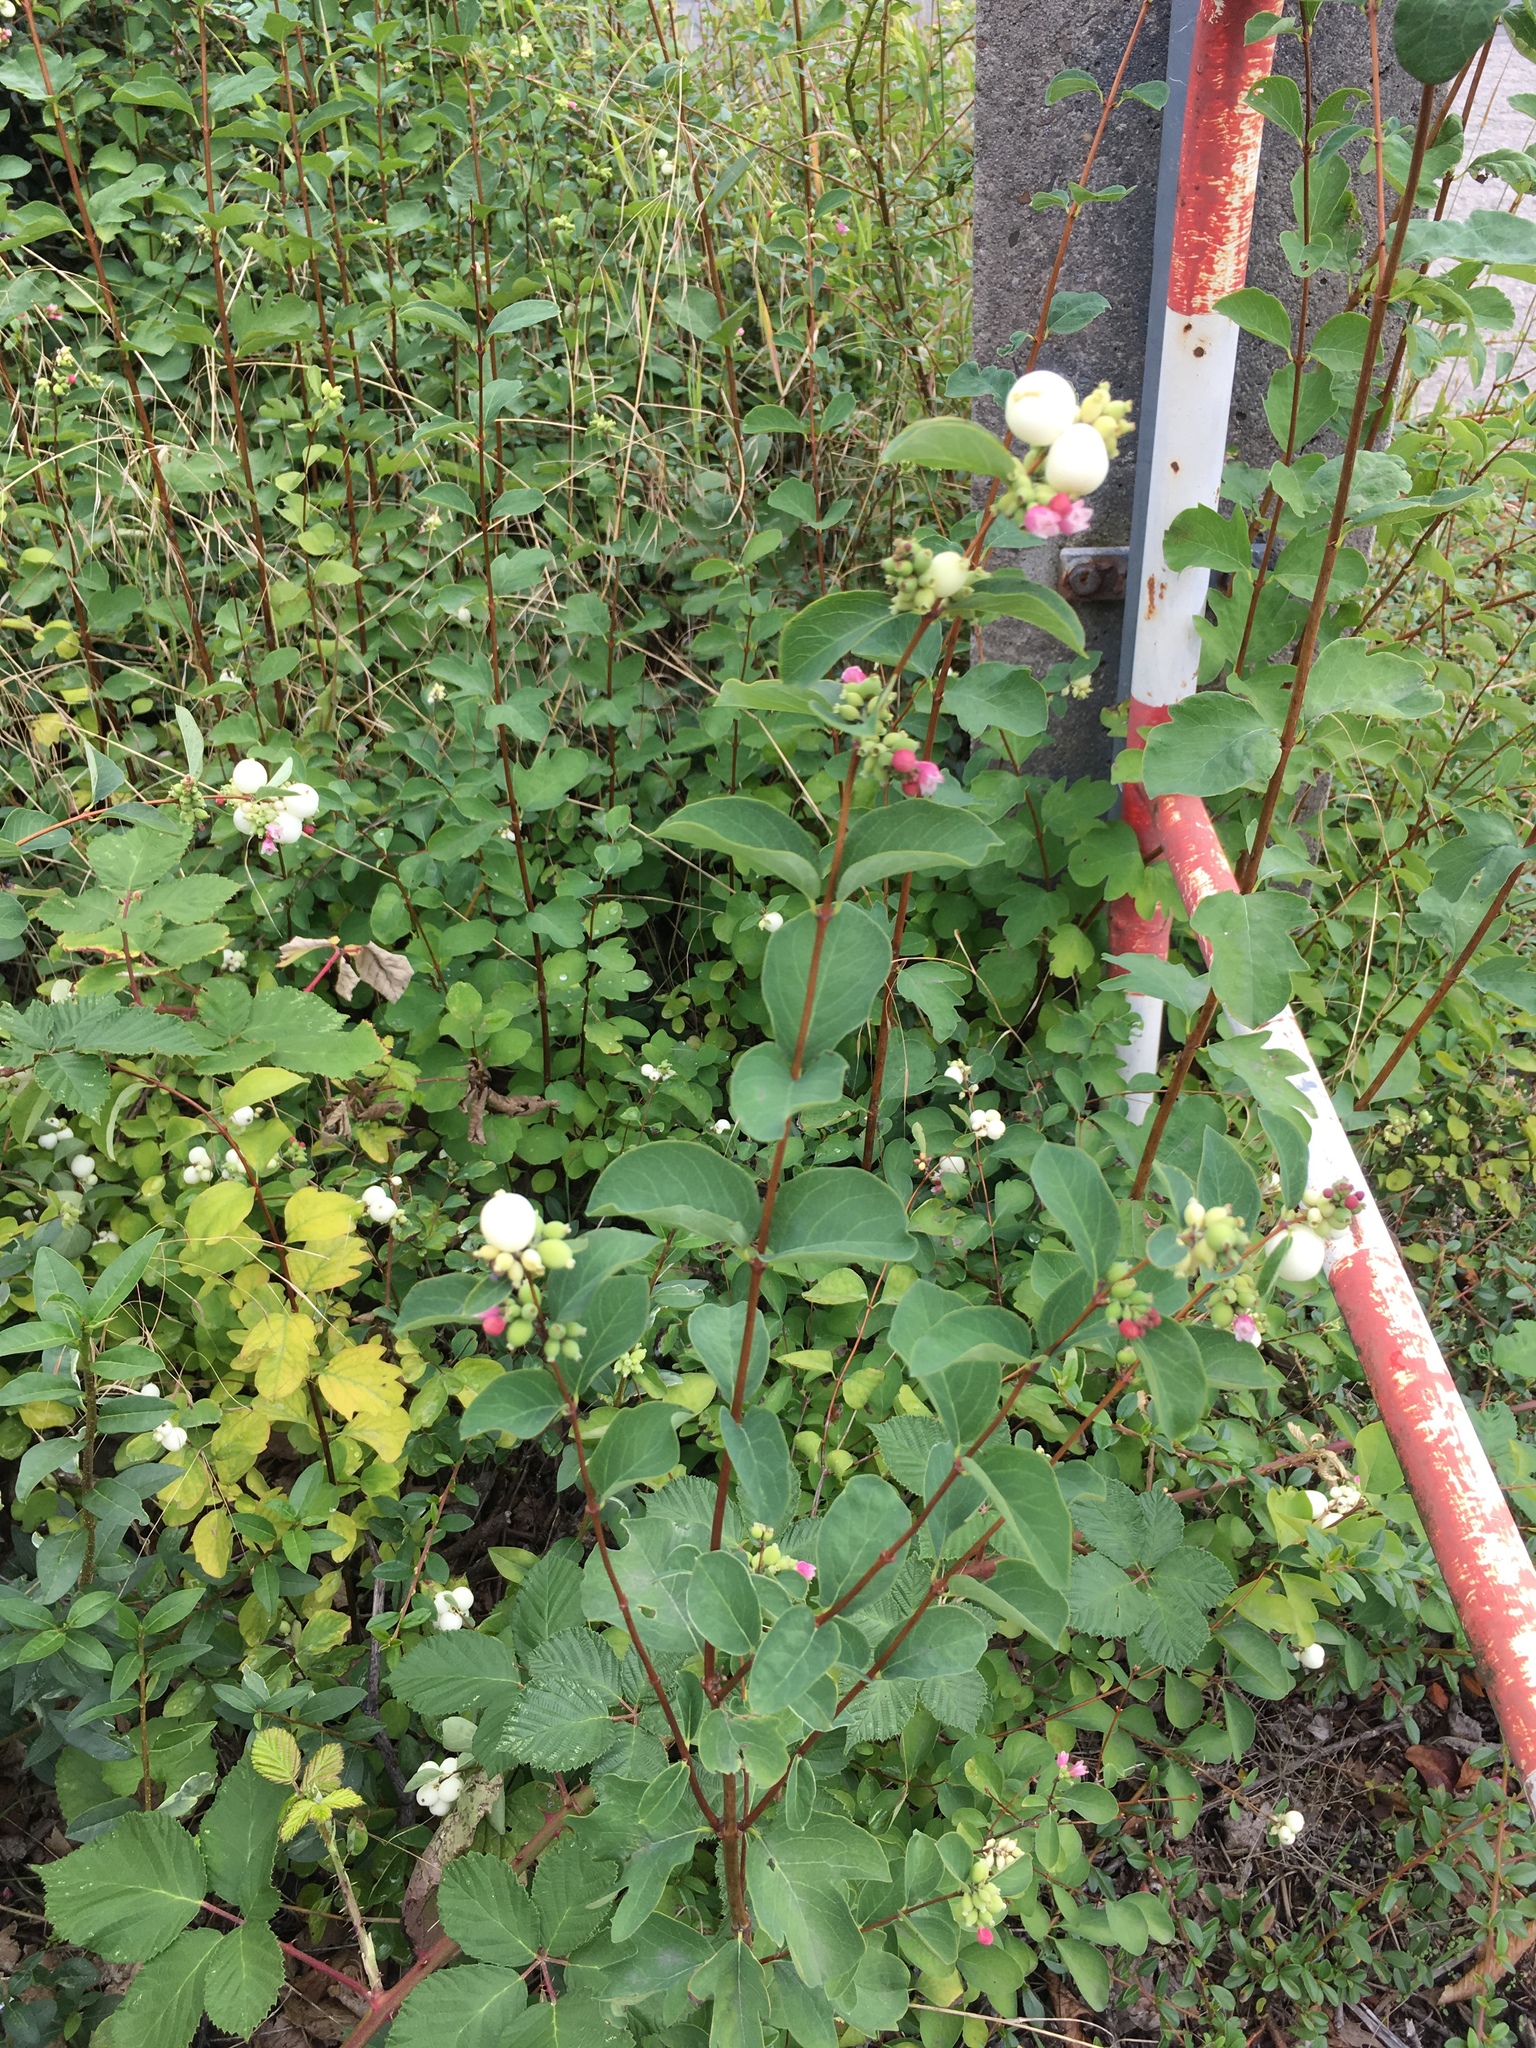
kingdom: Plantae
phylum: Tracheophyta
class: Magnoliopsida
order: Dipsacales
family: Caprifoliaceae
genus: Symphoricarpos
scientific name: Symphoricarpos albus
